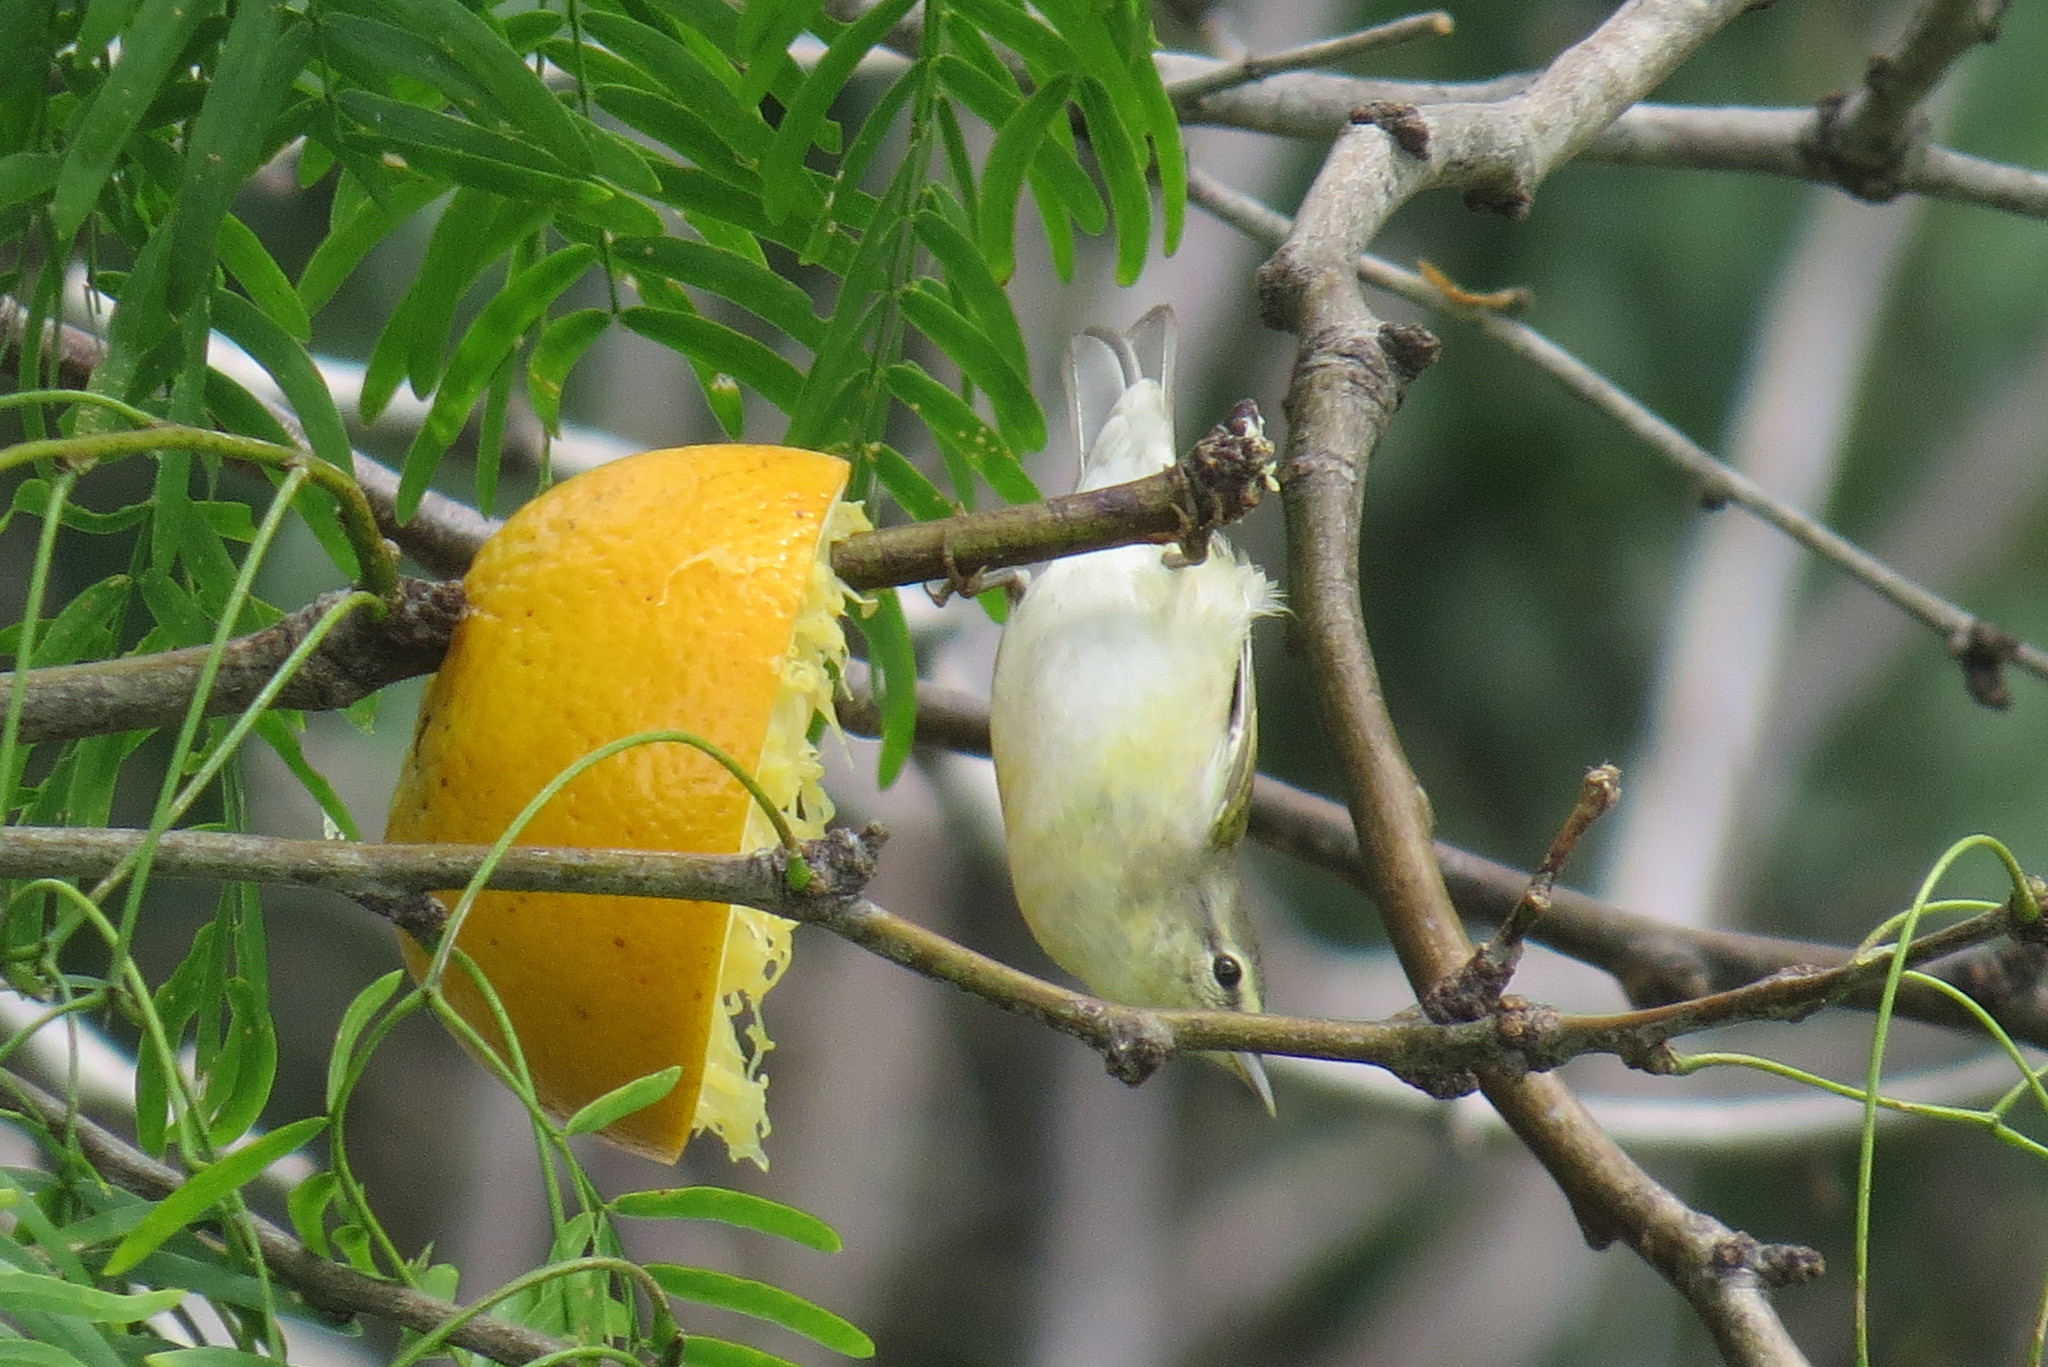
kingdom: Animalia
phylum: Chordata
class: Aves
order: Passeriformes
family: Parulidae
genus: Leiothlypis
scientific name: Leiothlypis peregrina
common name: Tennessee warbler
